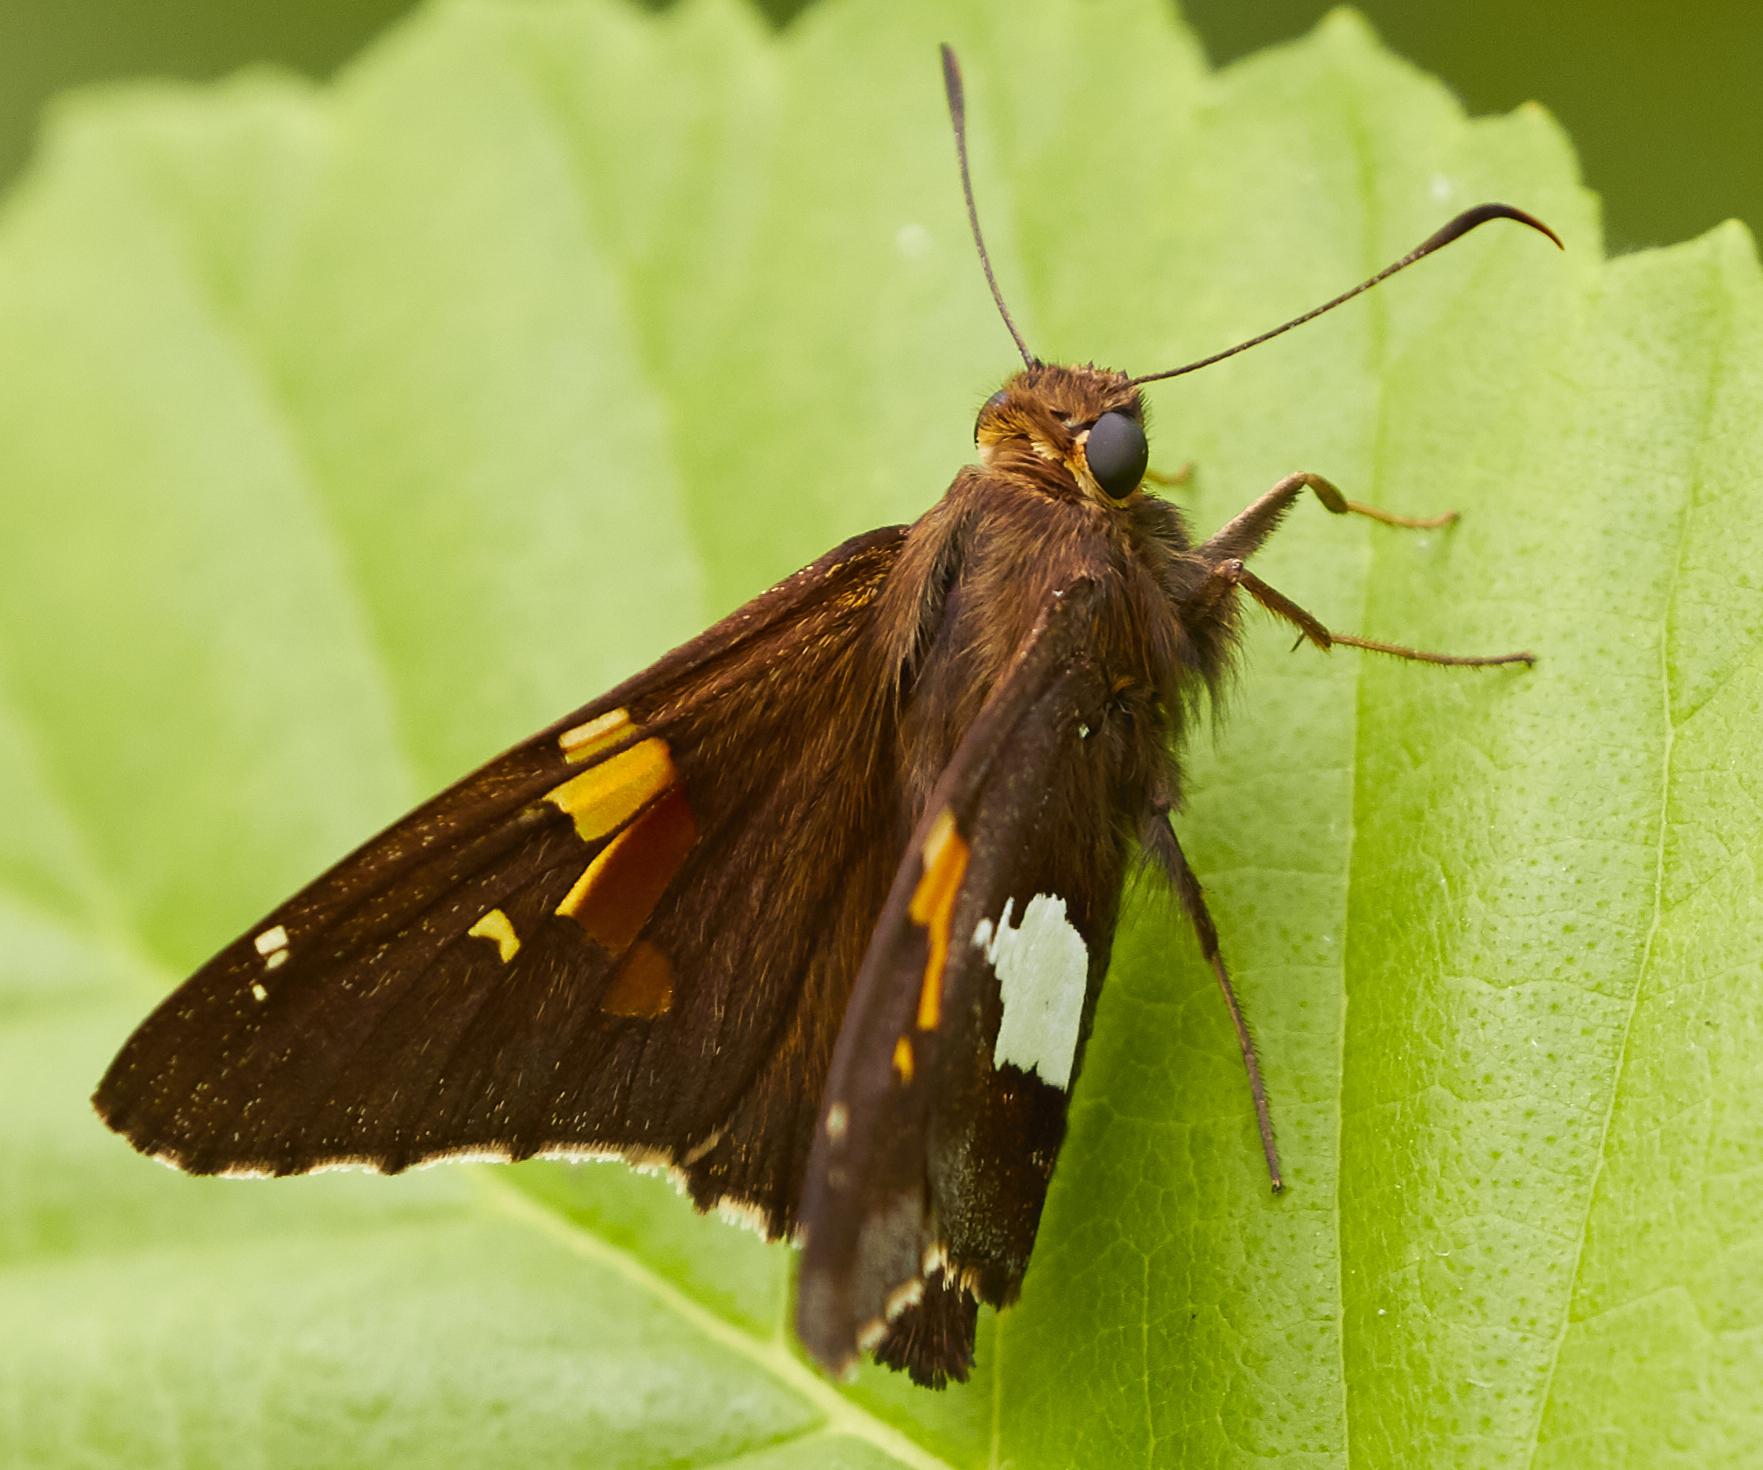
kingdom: Animalia
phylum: Arthropoda
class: Insecta
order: Lepidoptera
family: Hesperiidae
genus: Epargyreus
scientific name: Epargyreus clarus
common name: Silver-spotted skipper
